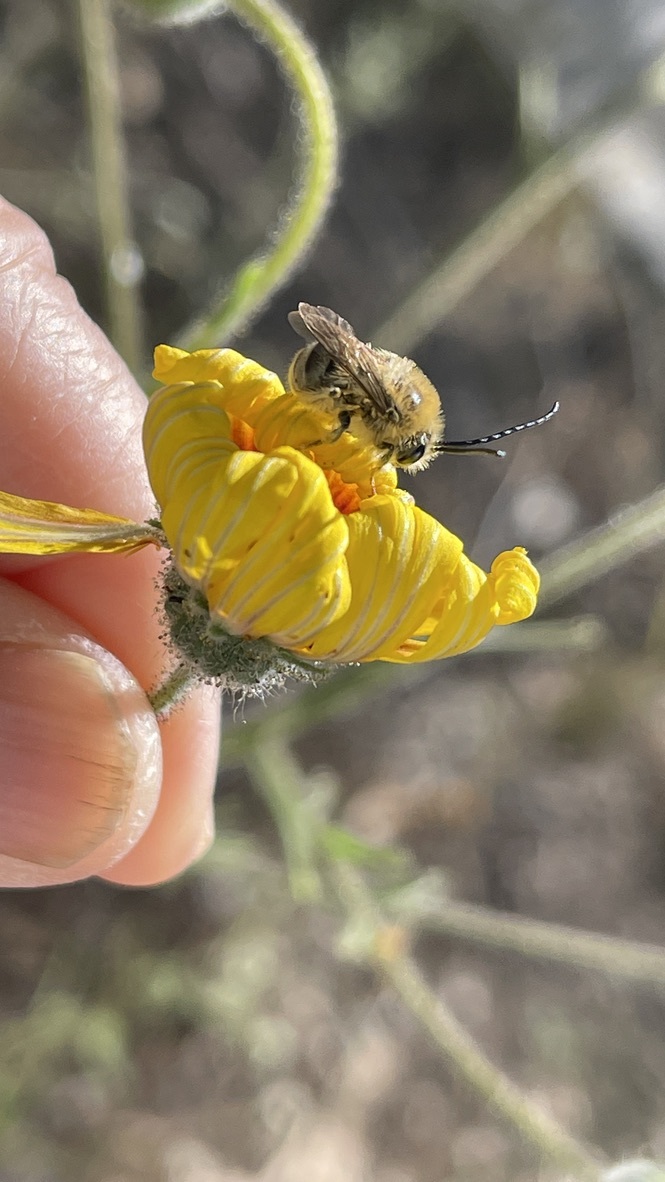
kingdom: Animalia
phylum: Arthropoda
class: Insecta
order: Hymenoptera
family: Apidae
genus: Tetraloniella
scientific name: Tetraloniella pomonae
